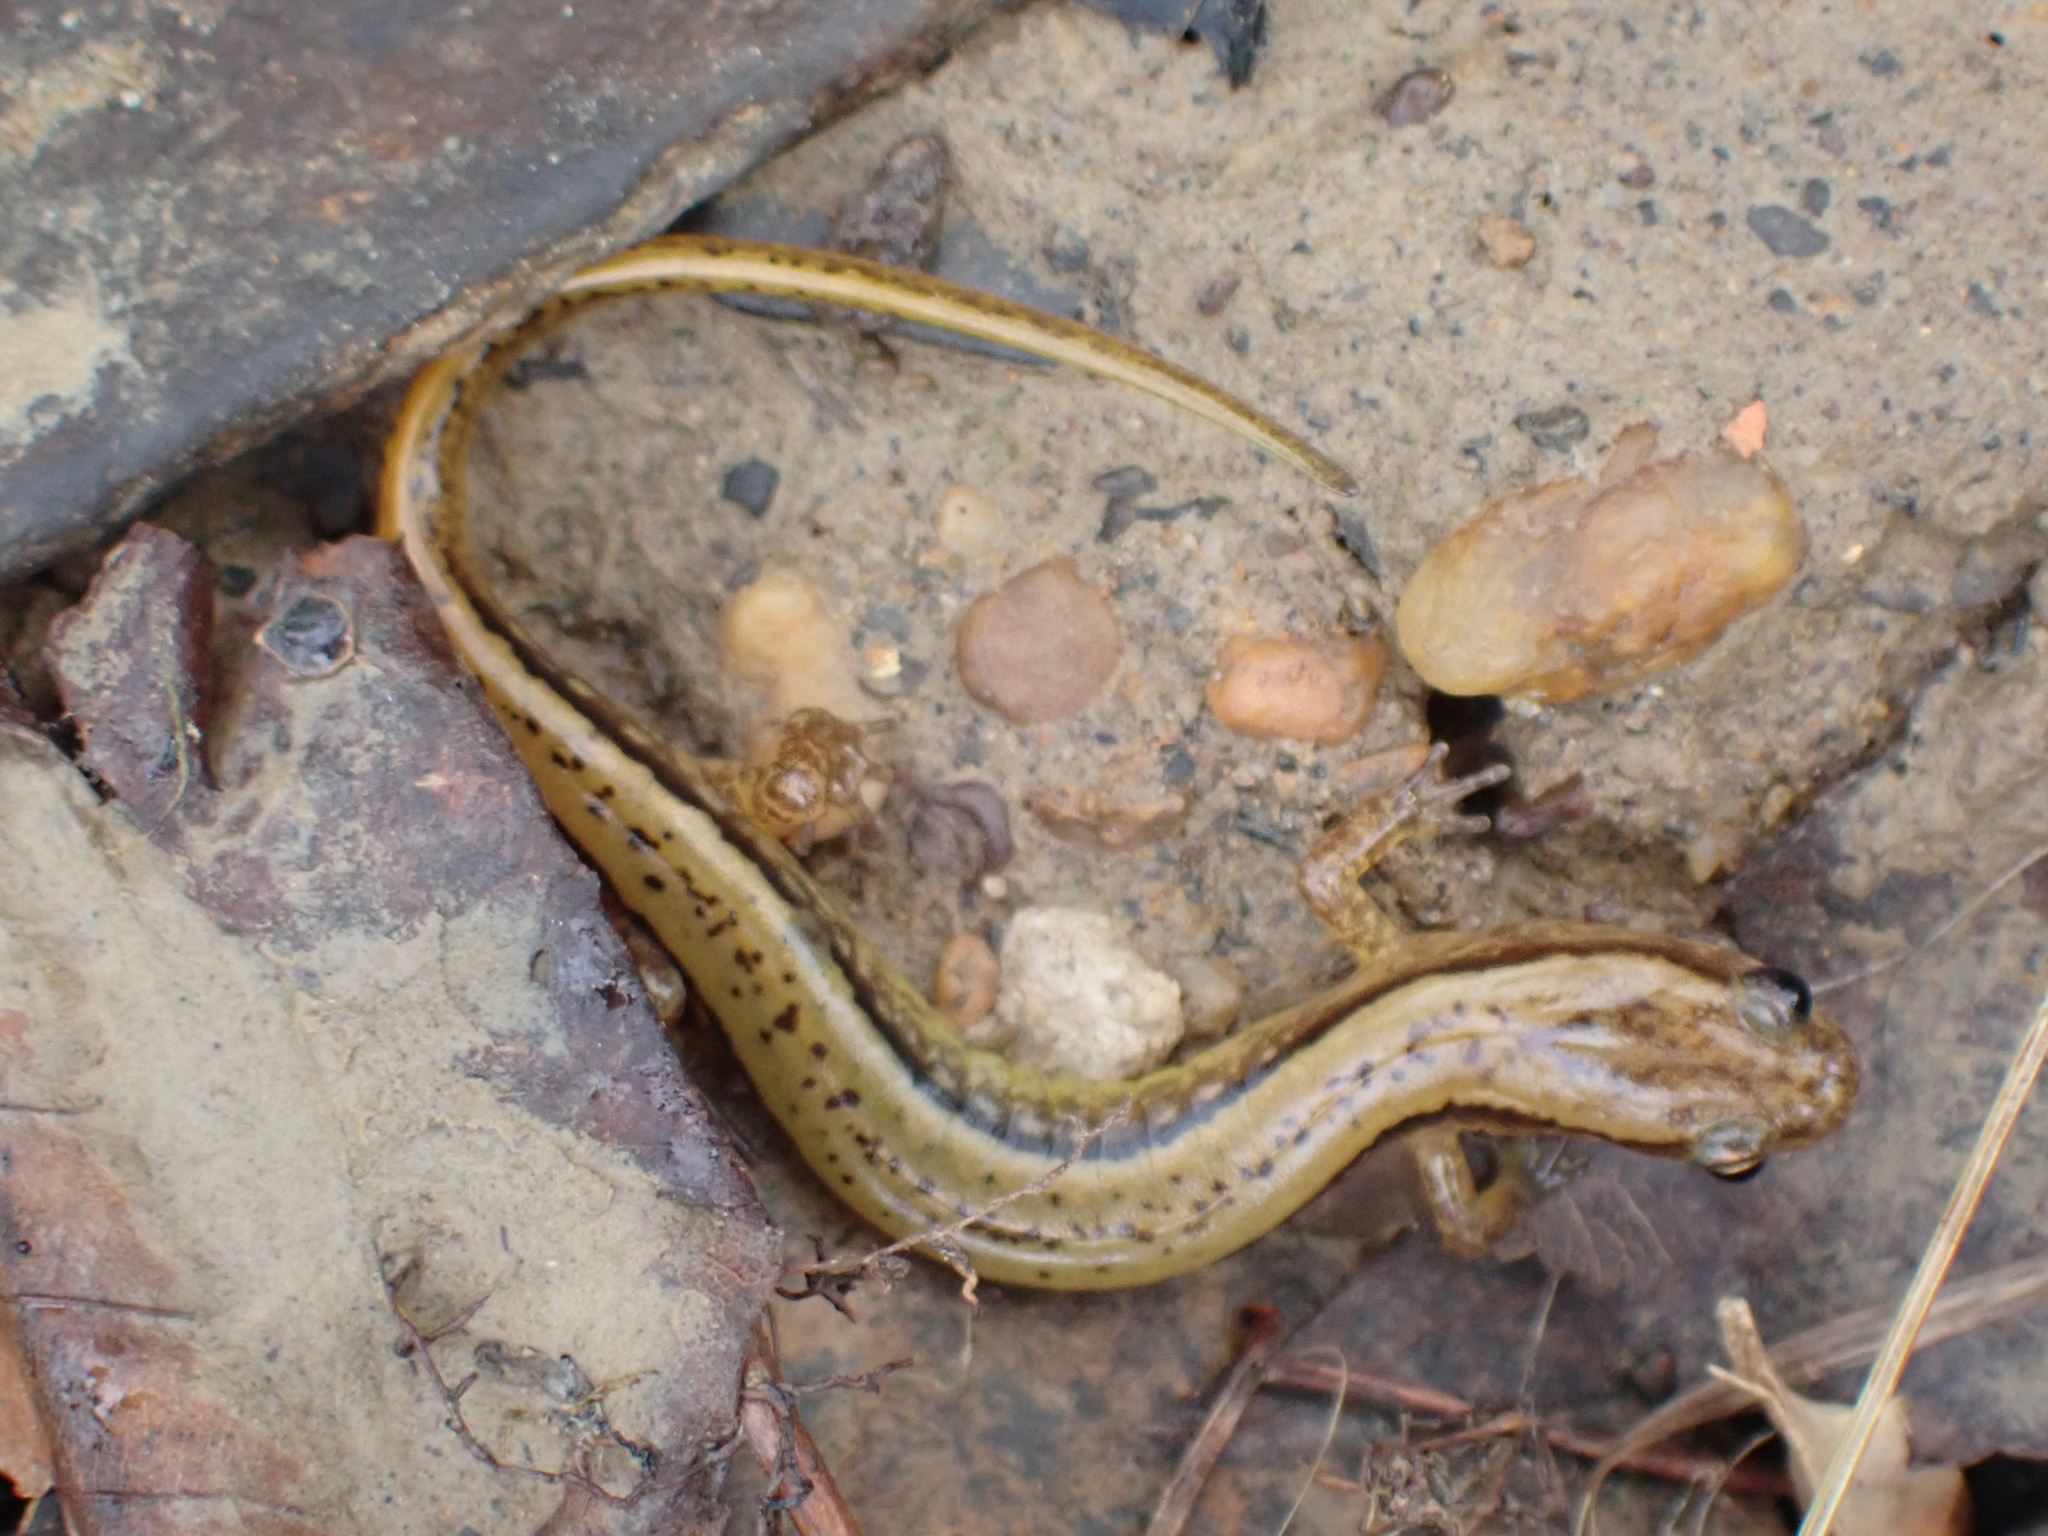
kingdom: Animalia
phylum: Chordata
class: Amphibia
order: Caudata
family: Plethodontidae
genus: Eurycea
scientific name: Eurycea cirrigera
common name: Southern two-lined salamander
